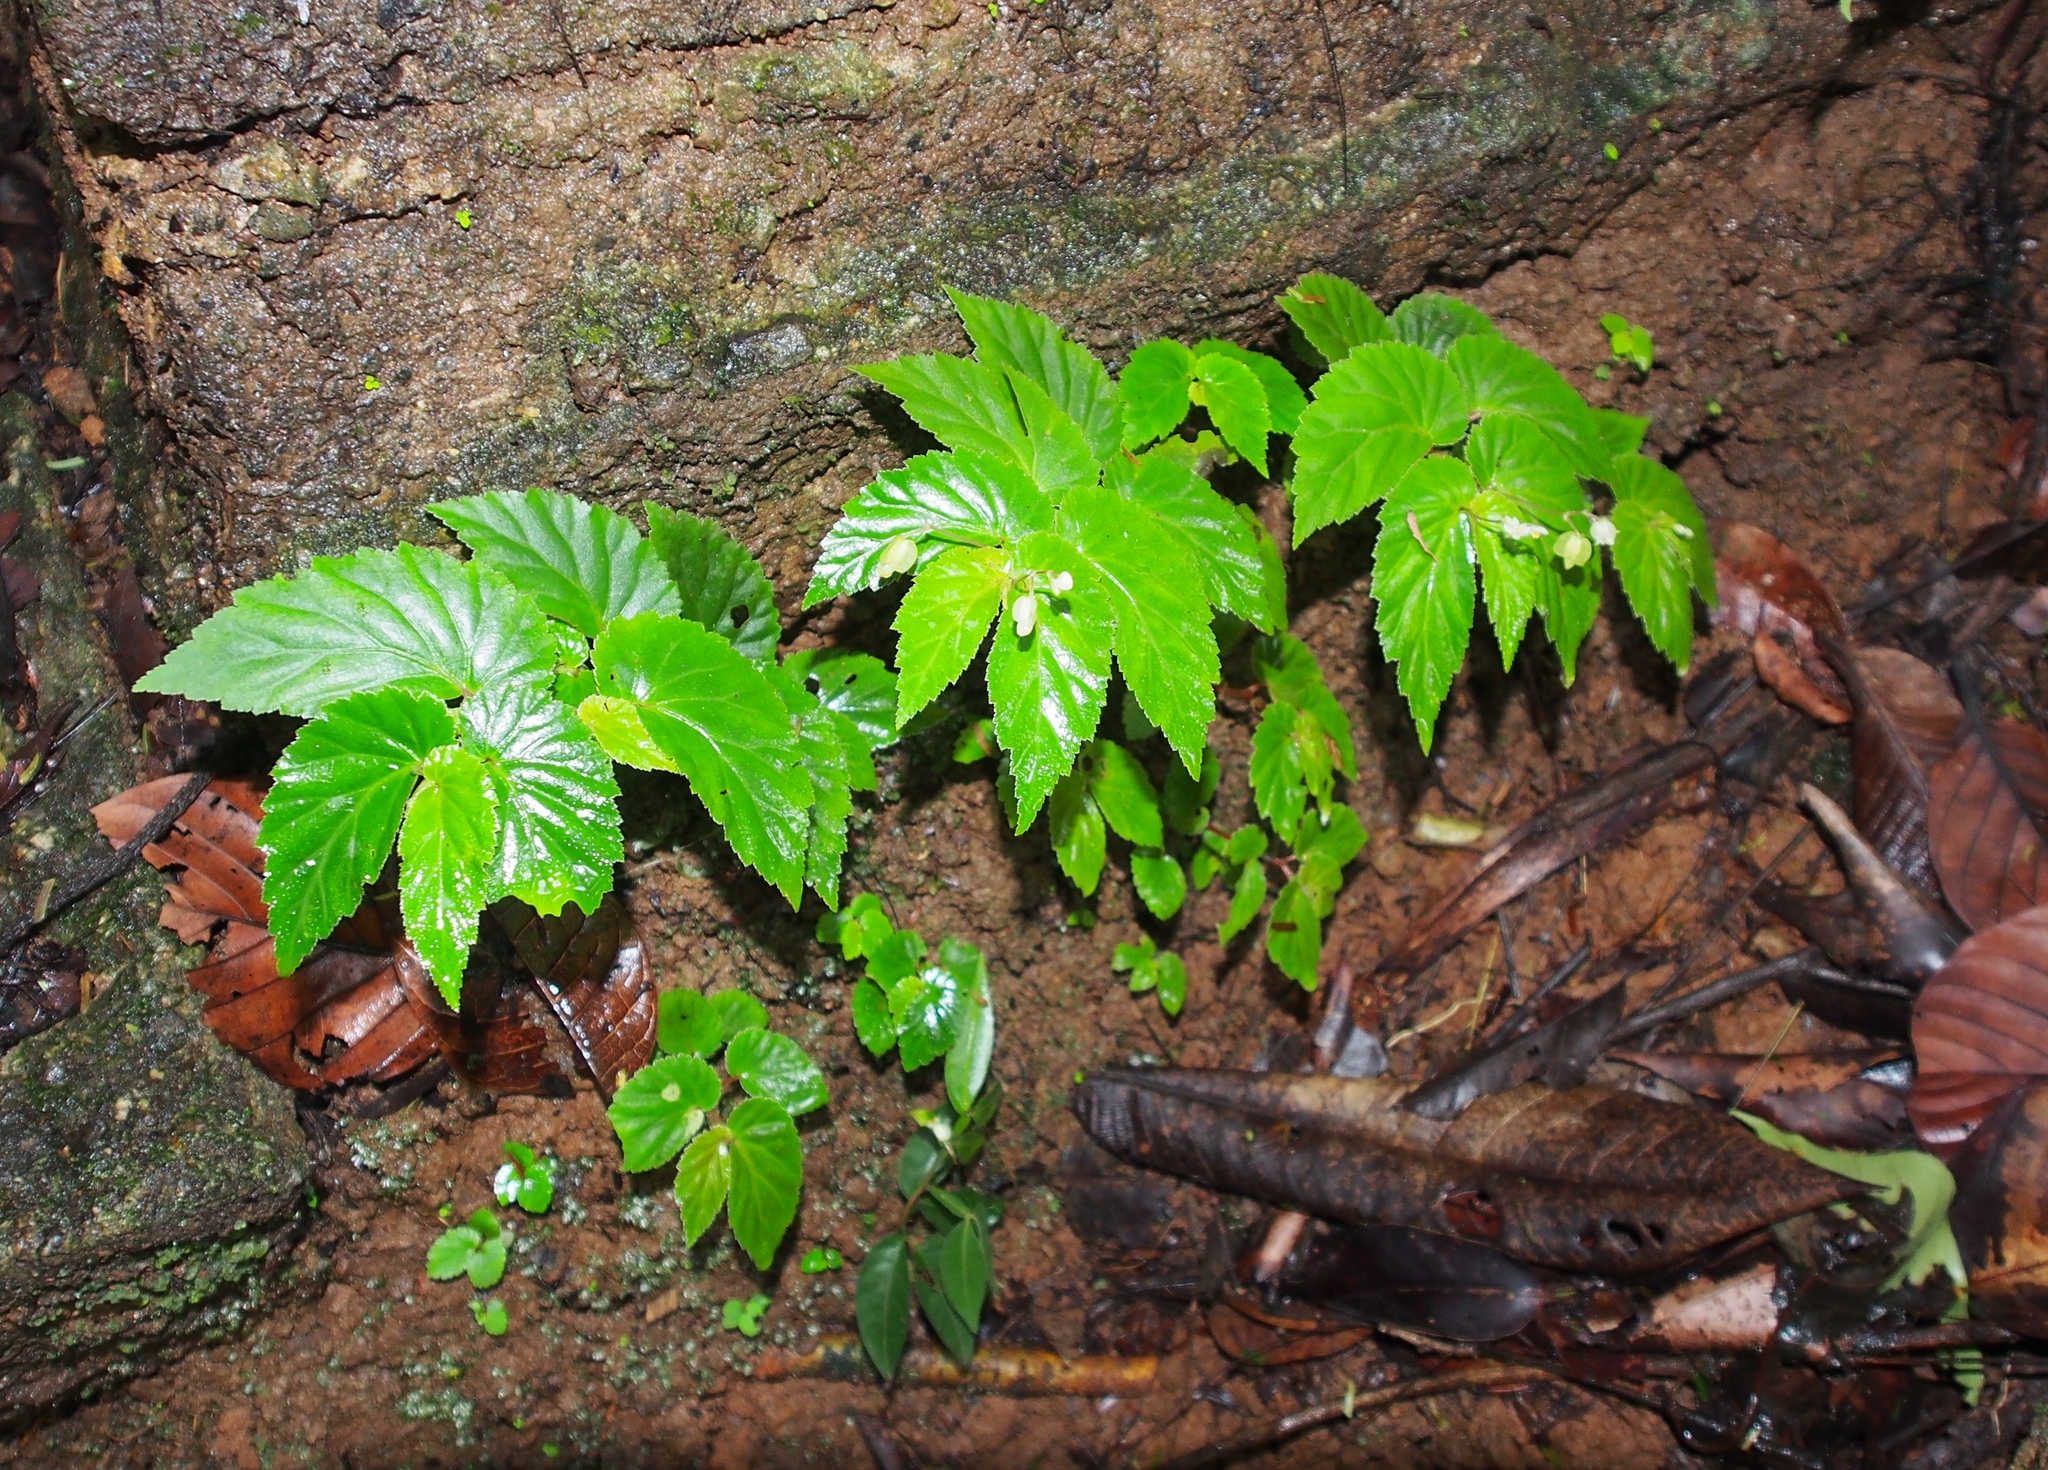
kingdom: Plantae
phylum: Tracheophyta
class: Magnoliopsida
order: Cucurbitales
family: Begoniaceae
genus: Begonia
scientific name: Begonia semiovata
